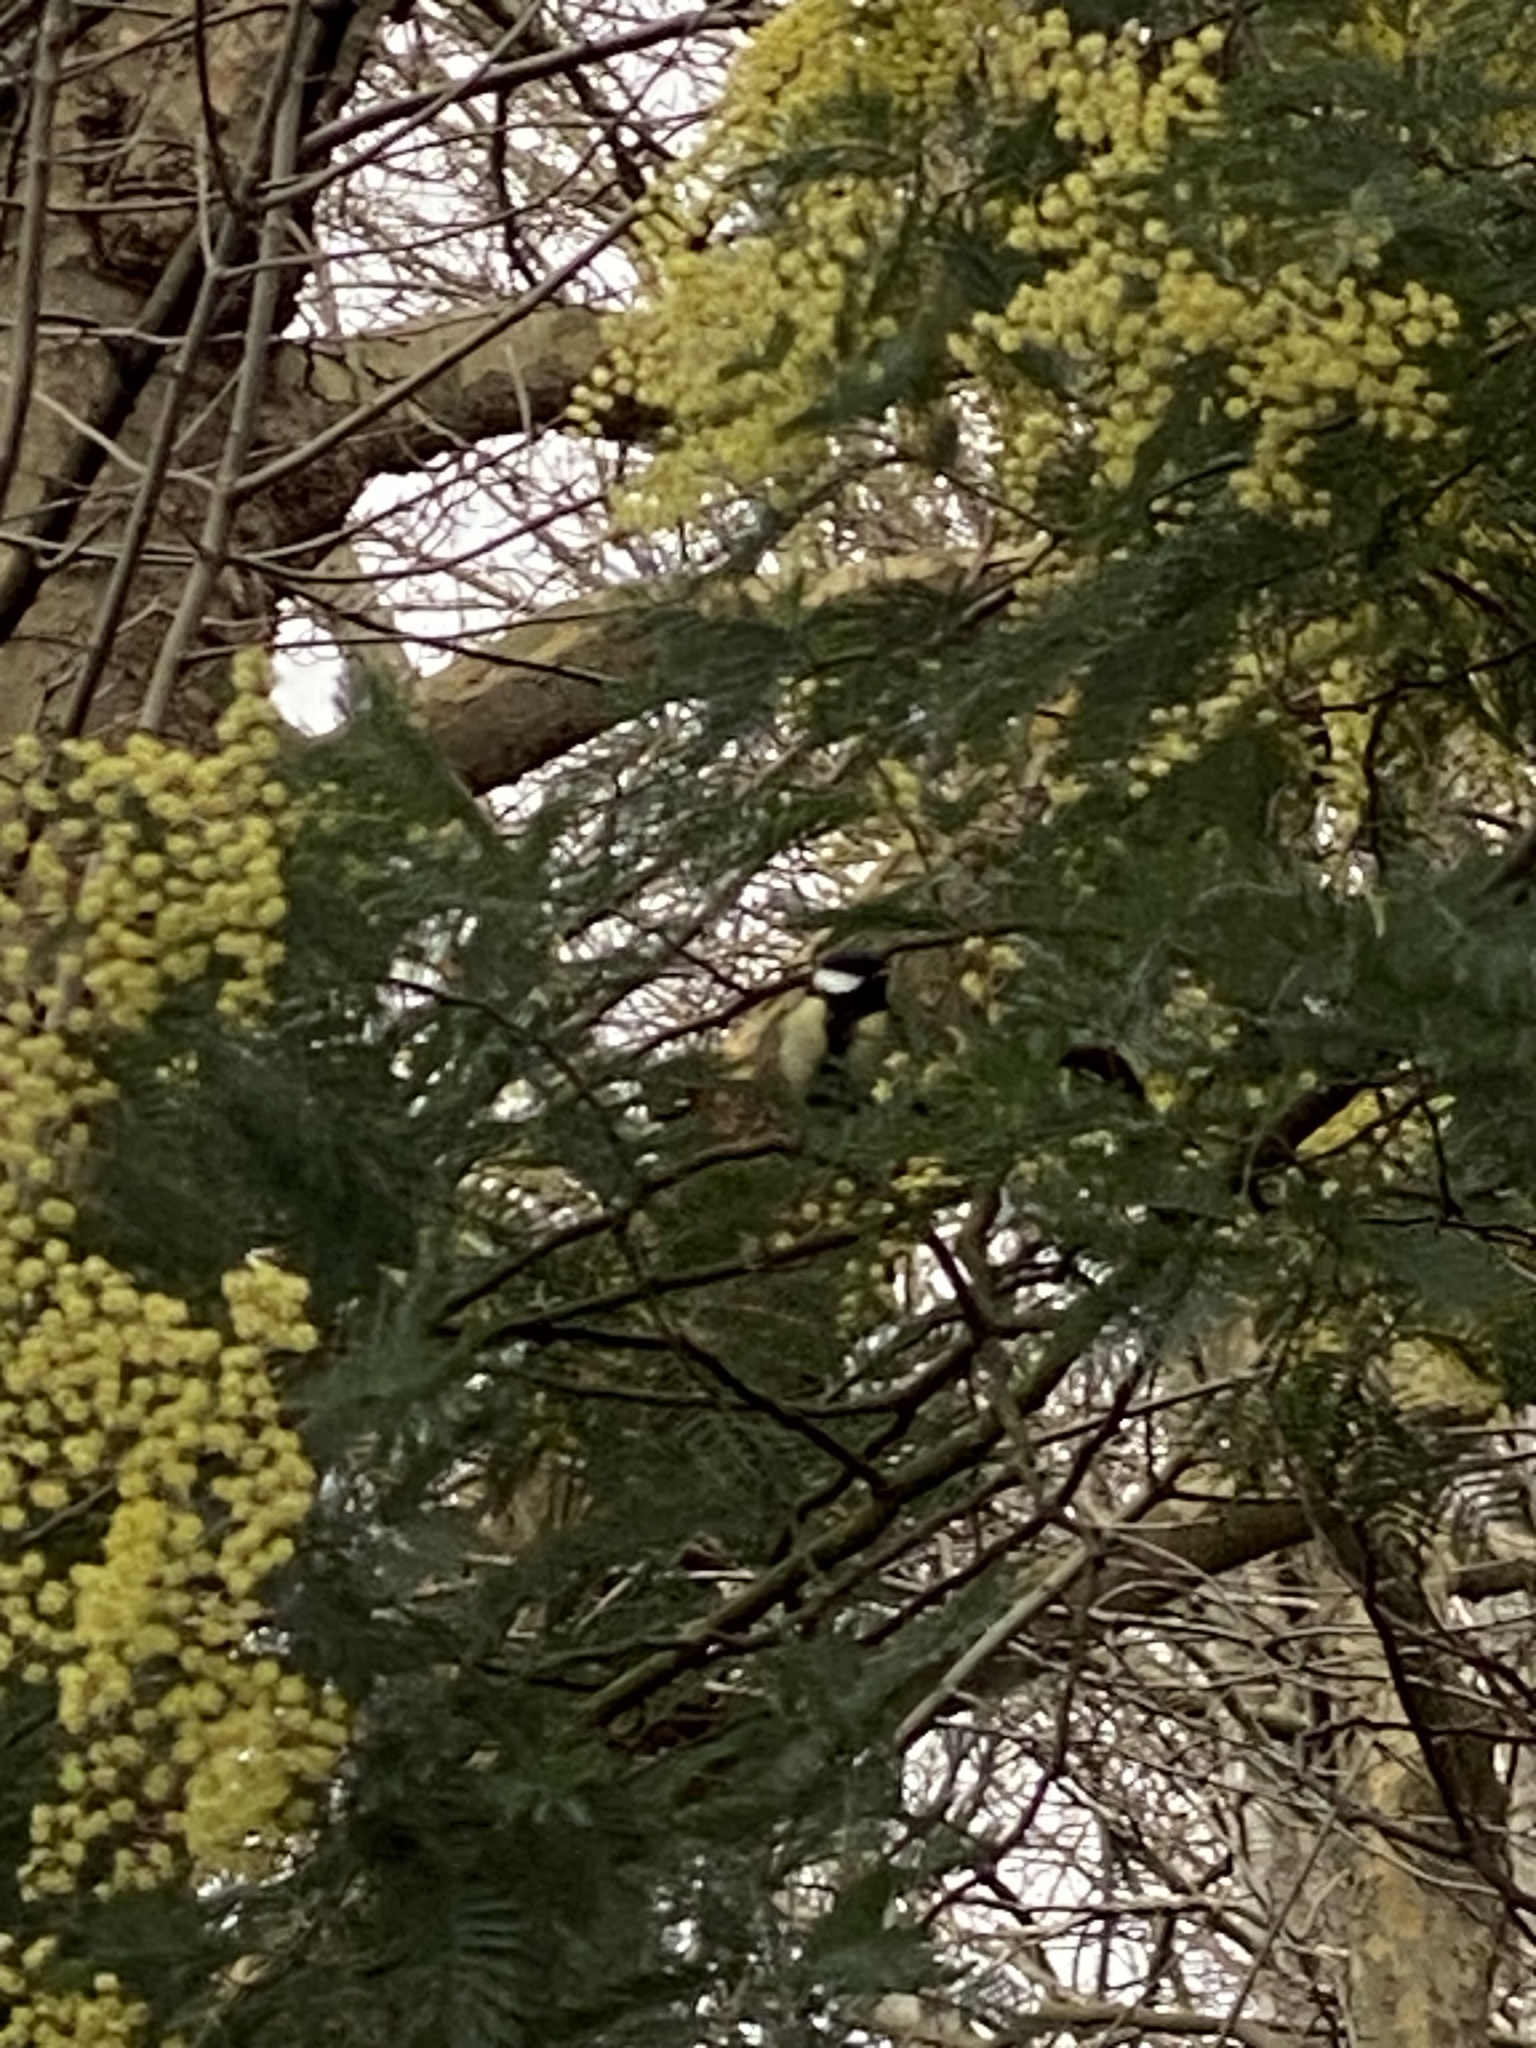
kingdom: Animalia
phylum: Chordata
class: Aves
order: Passeriformes
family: Paridae
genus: Parus
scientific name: Parus major
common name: Great tit
